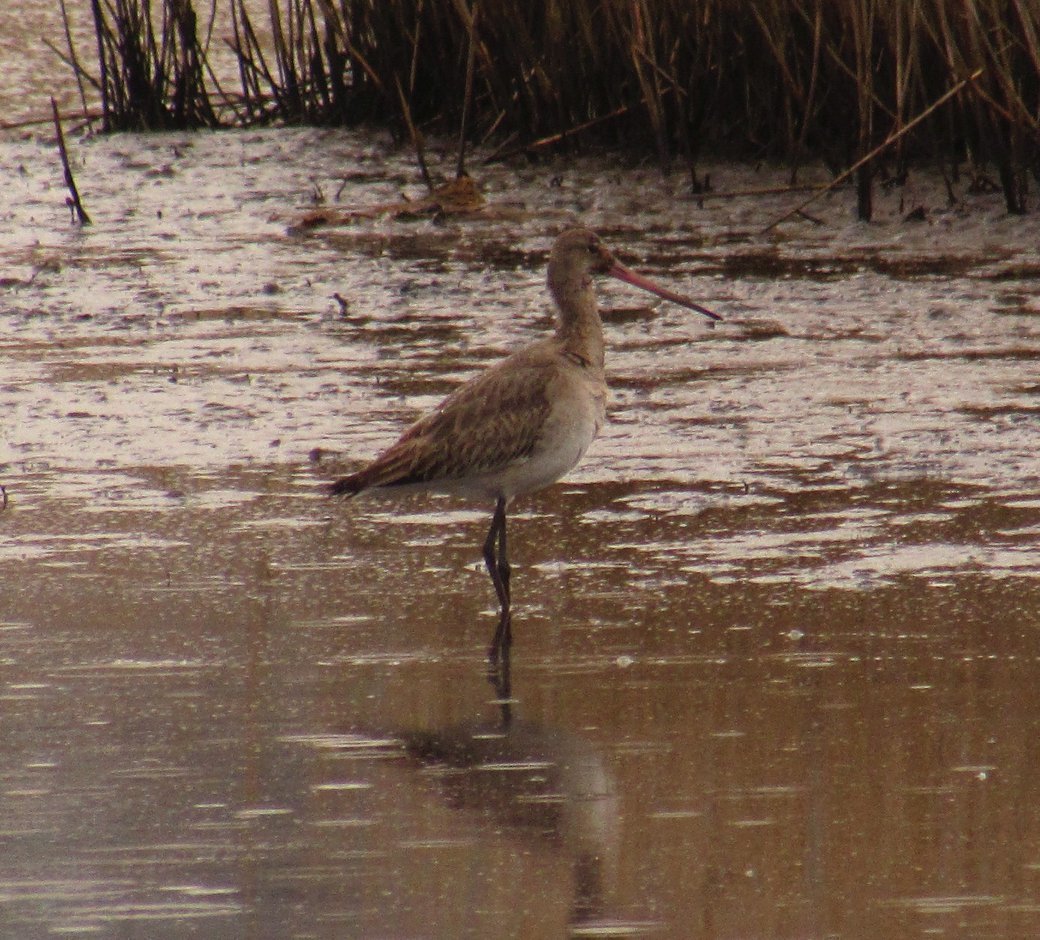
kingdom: Animalia
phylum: Chordata
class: Aves
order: Charadriiformes
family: Scolopacidae
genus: Limosa
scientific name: Limosa limosa
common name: Black-tailed godwit
